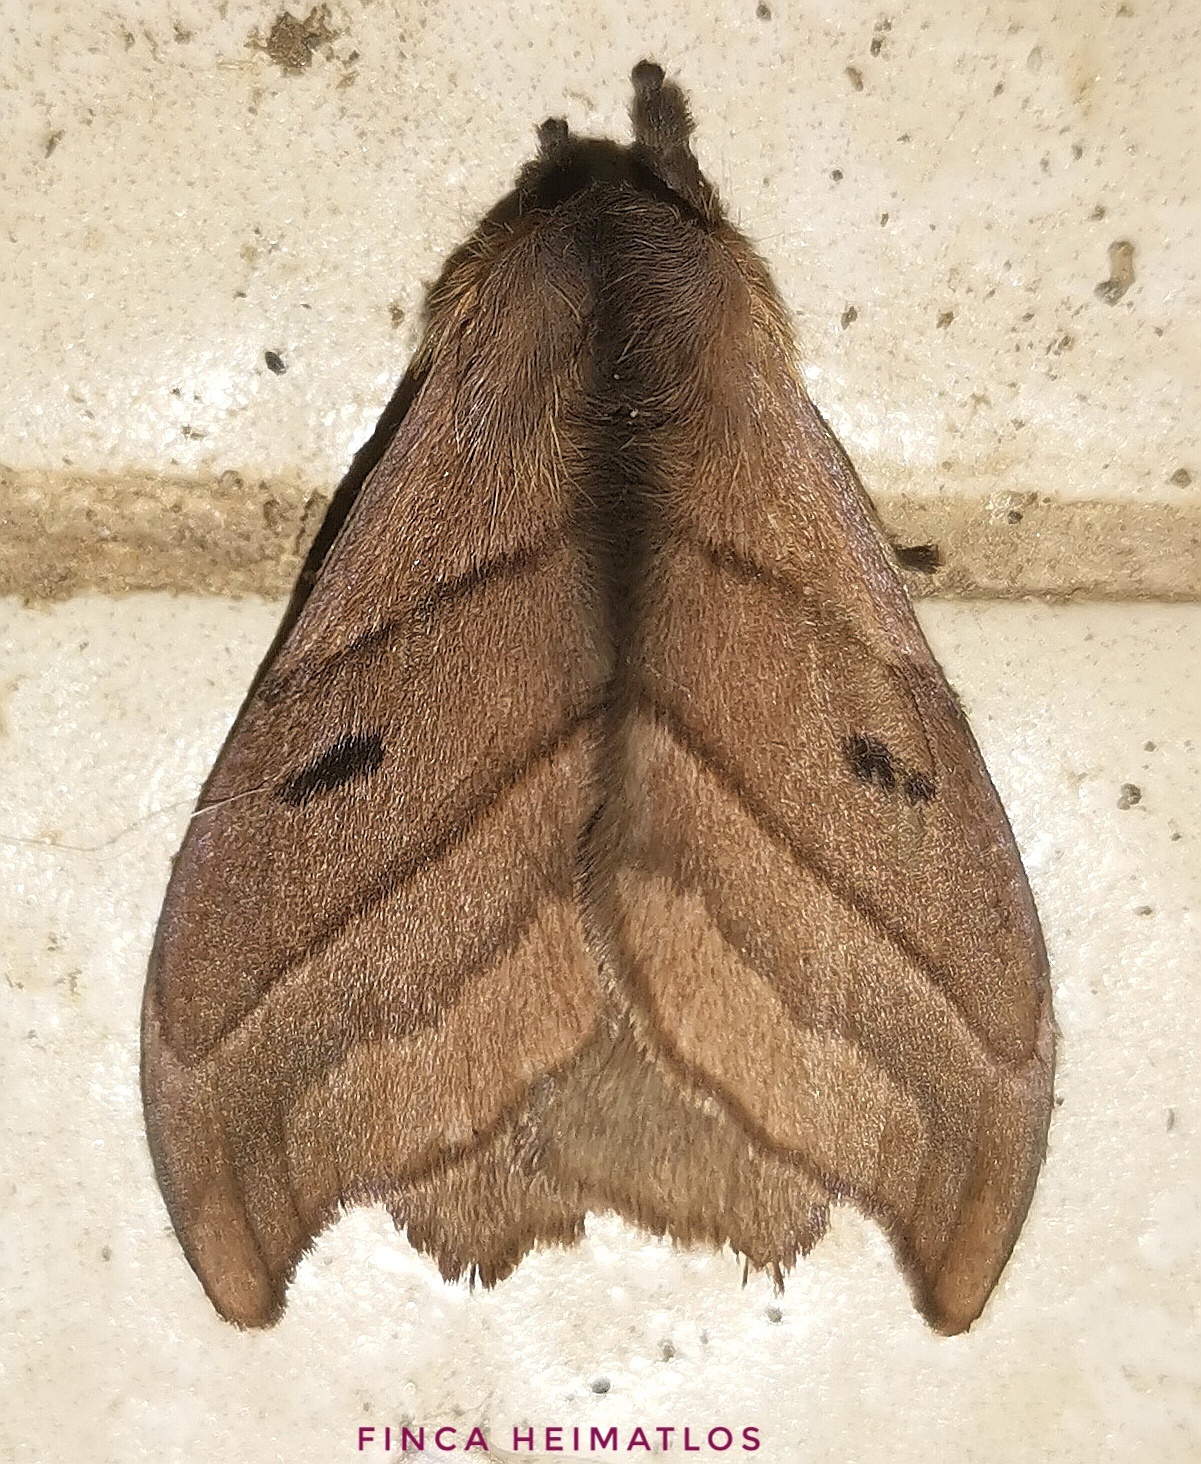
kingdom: Animalia
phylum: Arthropoda
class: Insecta
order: Lepidoptera
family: Saturniidae
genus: Hyperchiria
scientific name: Hyperchiria nausica
